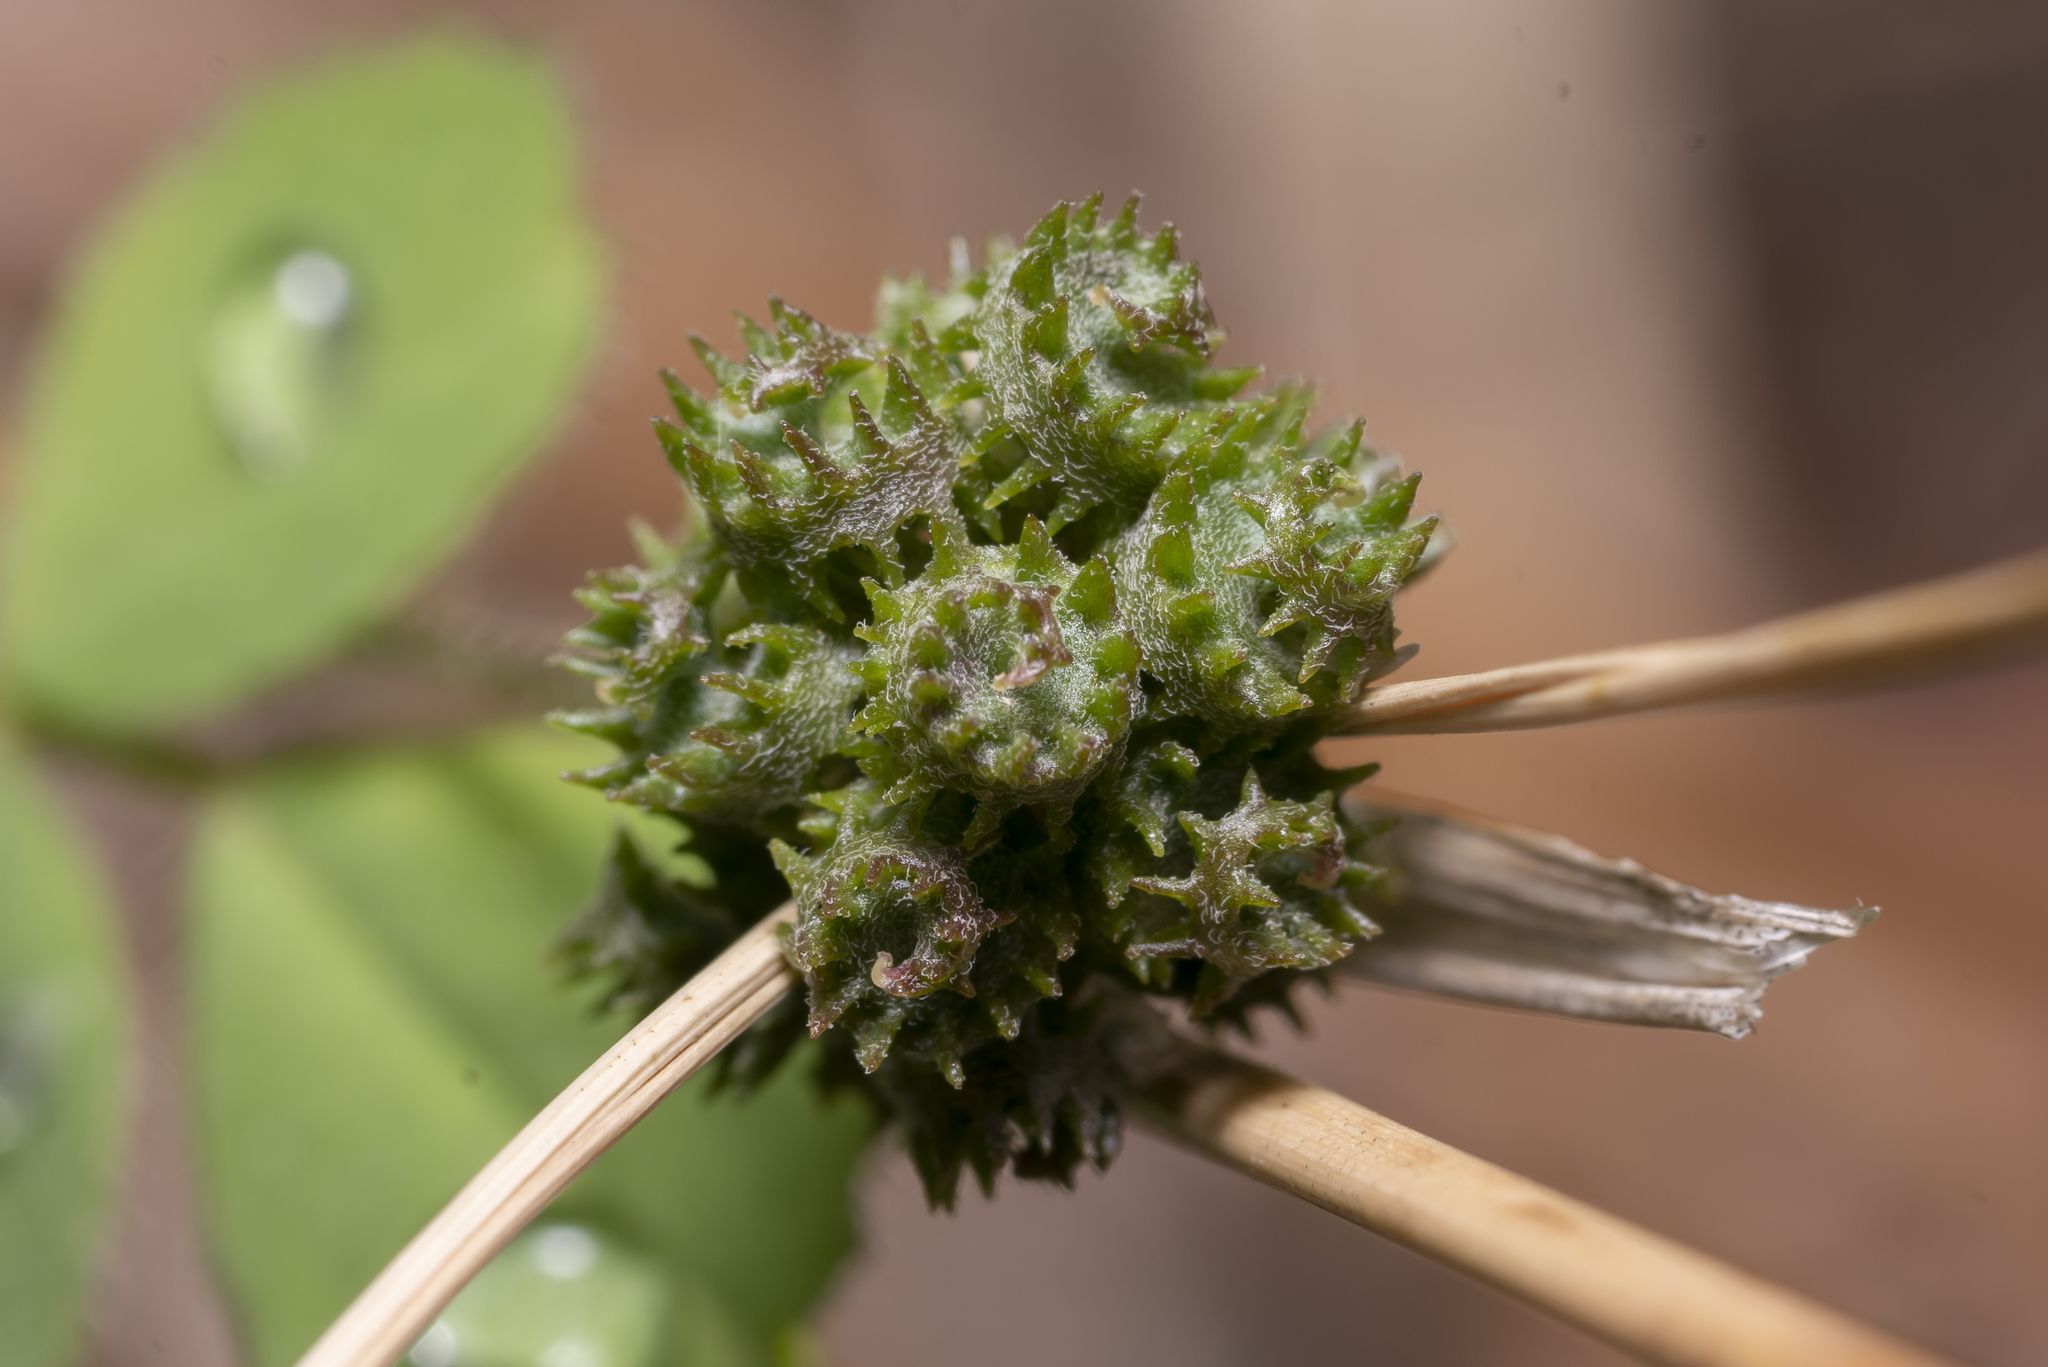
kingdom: Plantae
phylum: Tracheophyta
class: Magnoliopsida
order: Fabales
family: Fabaceae
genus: Medicago
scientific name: Medicago coronata
